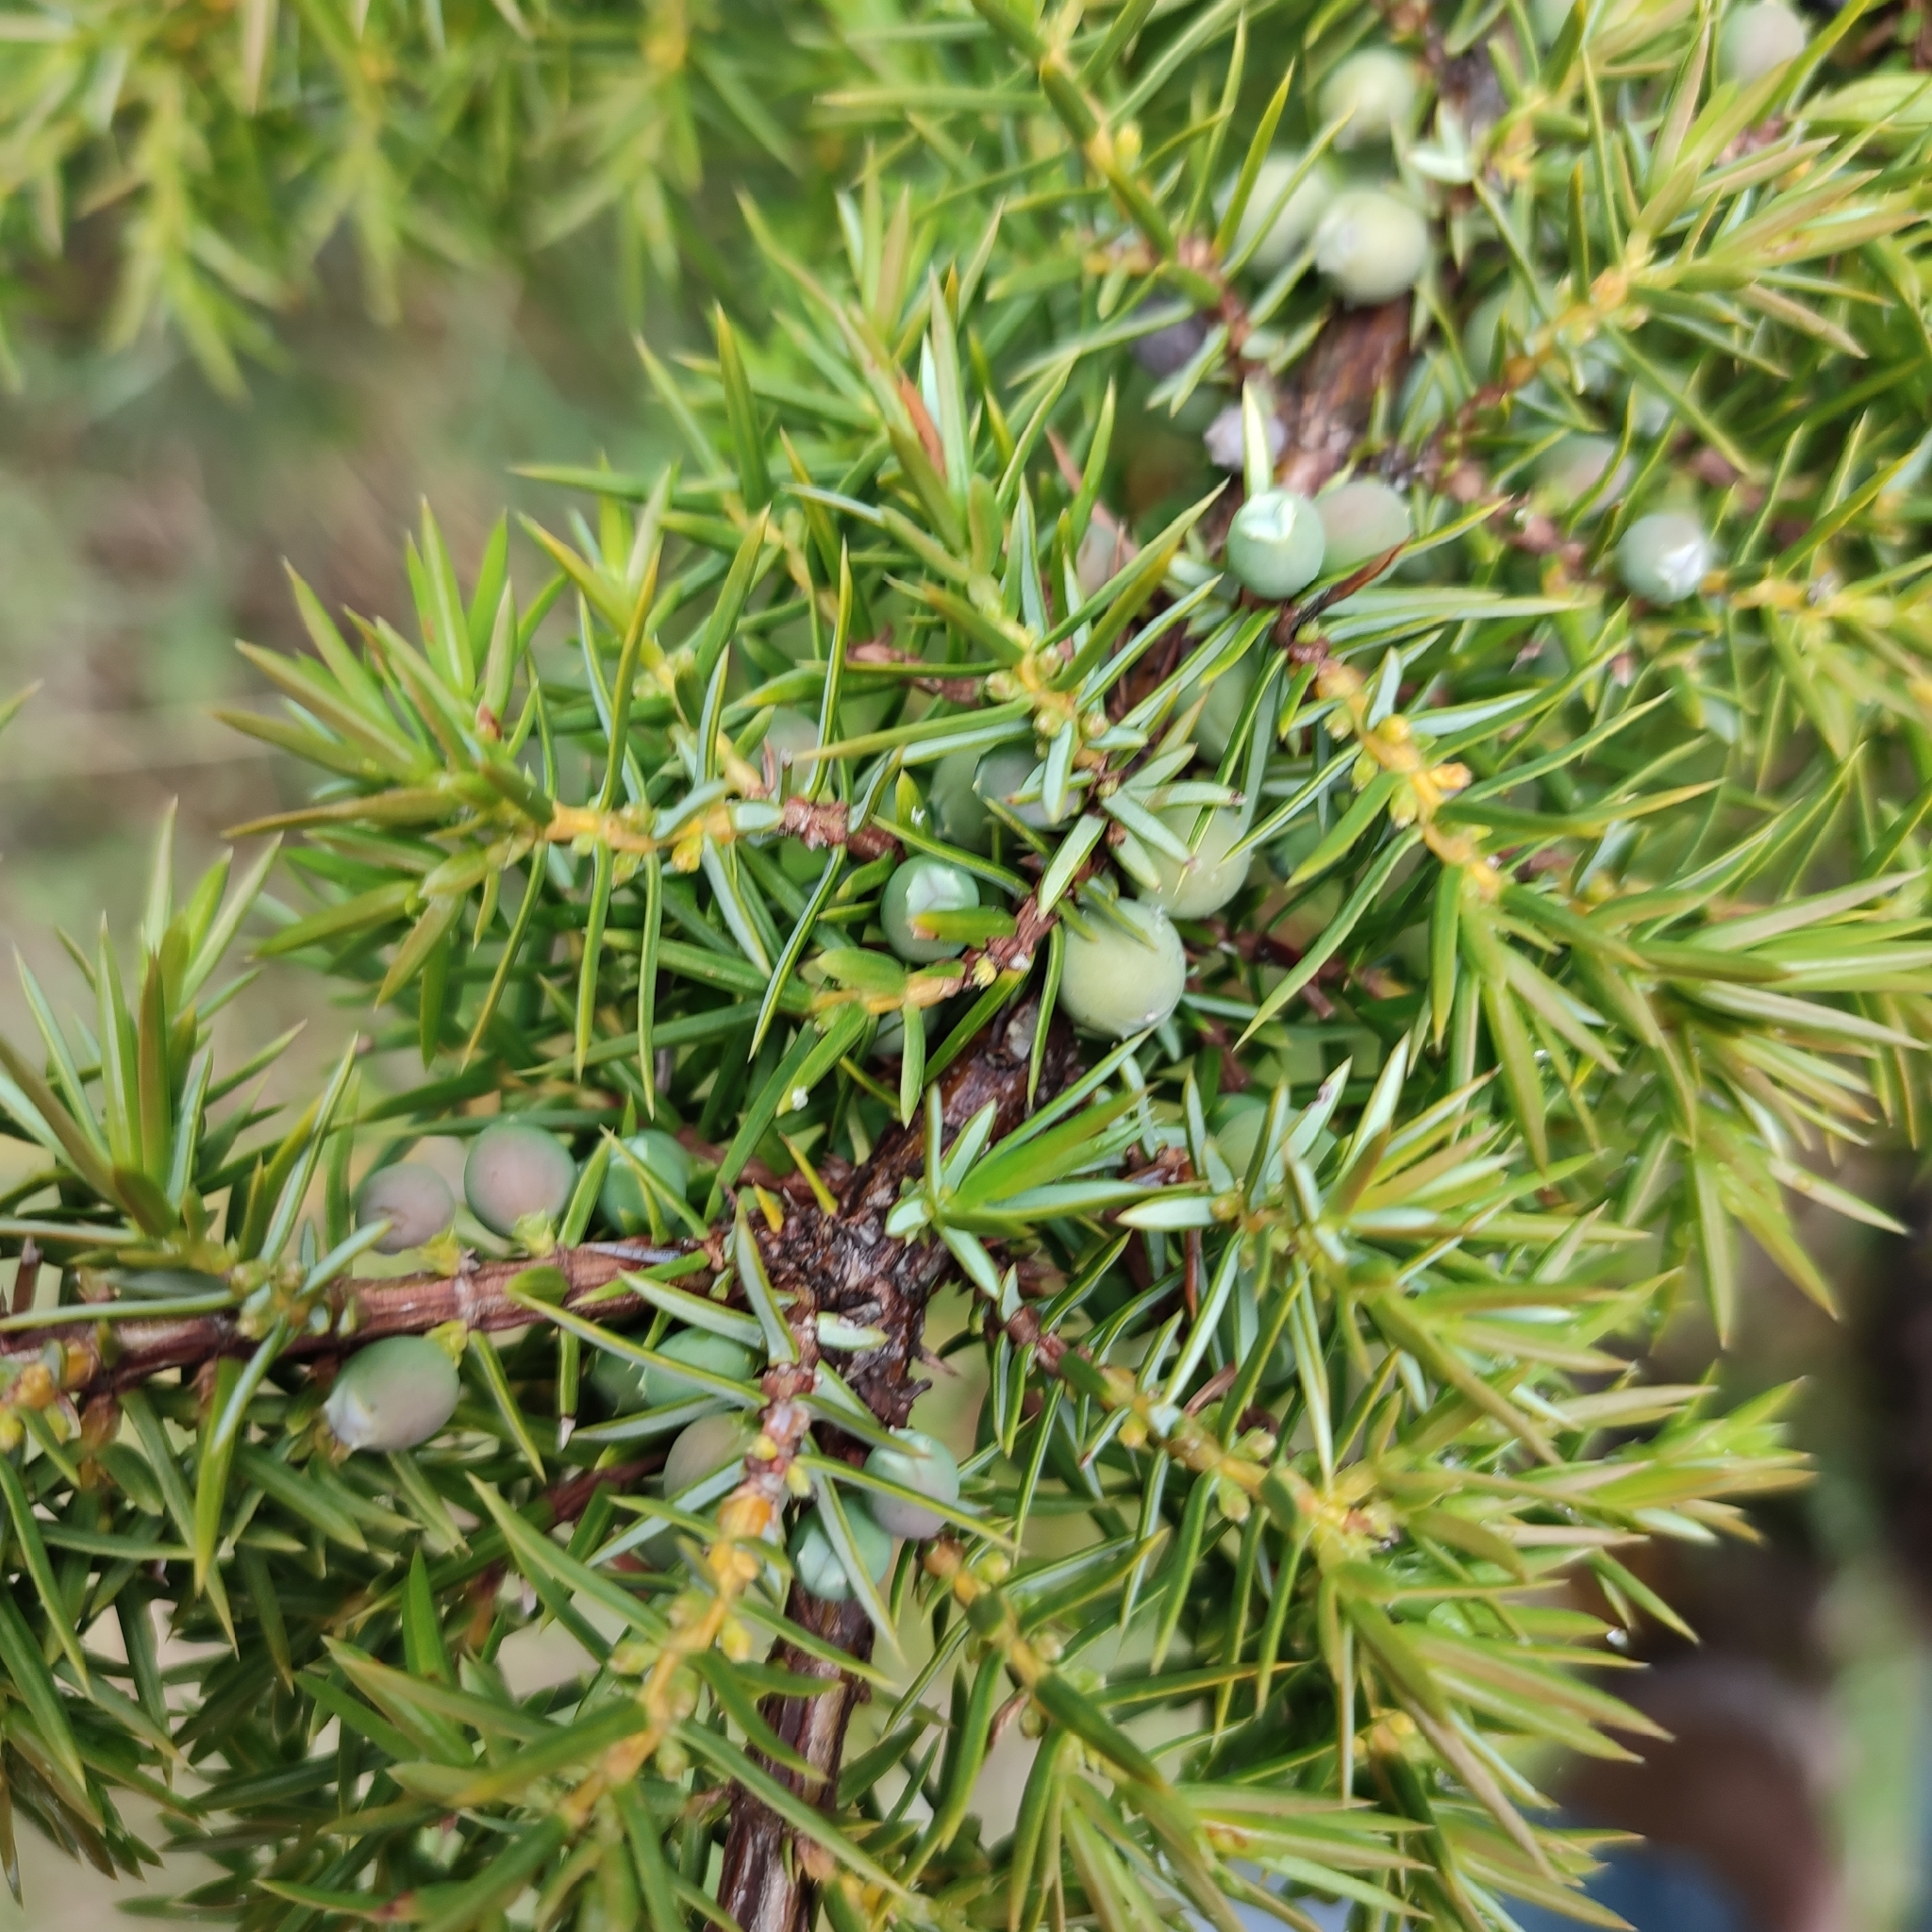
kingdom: Plantae
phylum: Tracheophyta
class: Pinopsida
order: Pinales
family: Cupressaceae
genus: Juniperus
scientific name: Juniperus communis
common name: Common juniper
